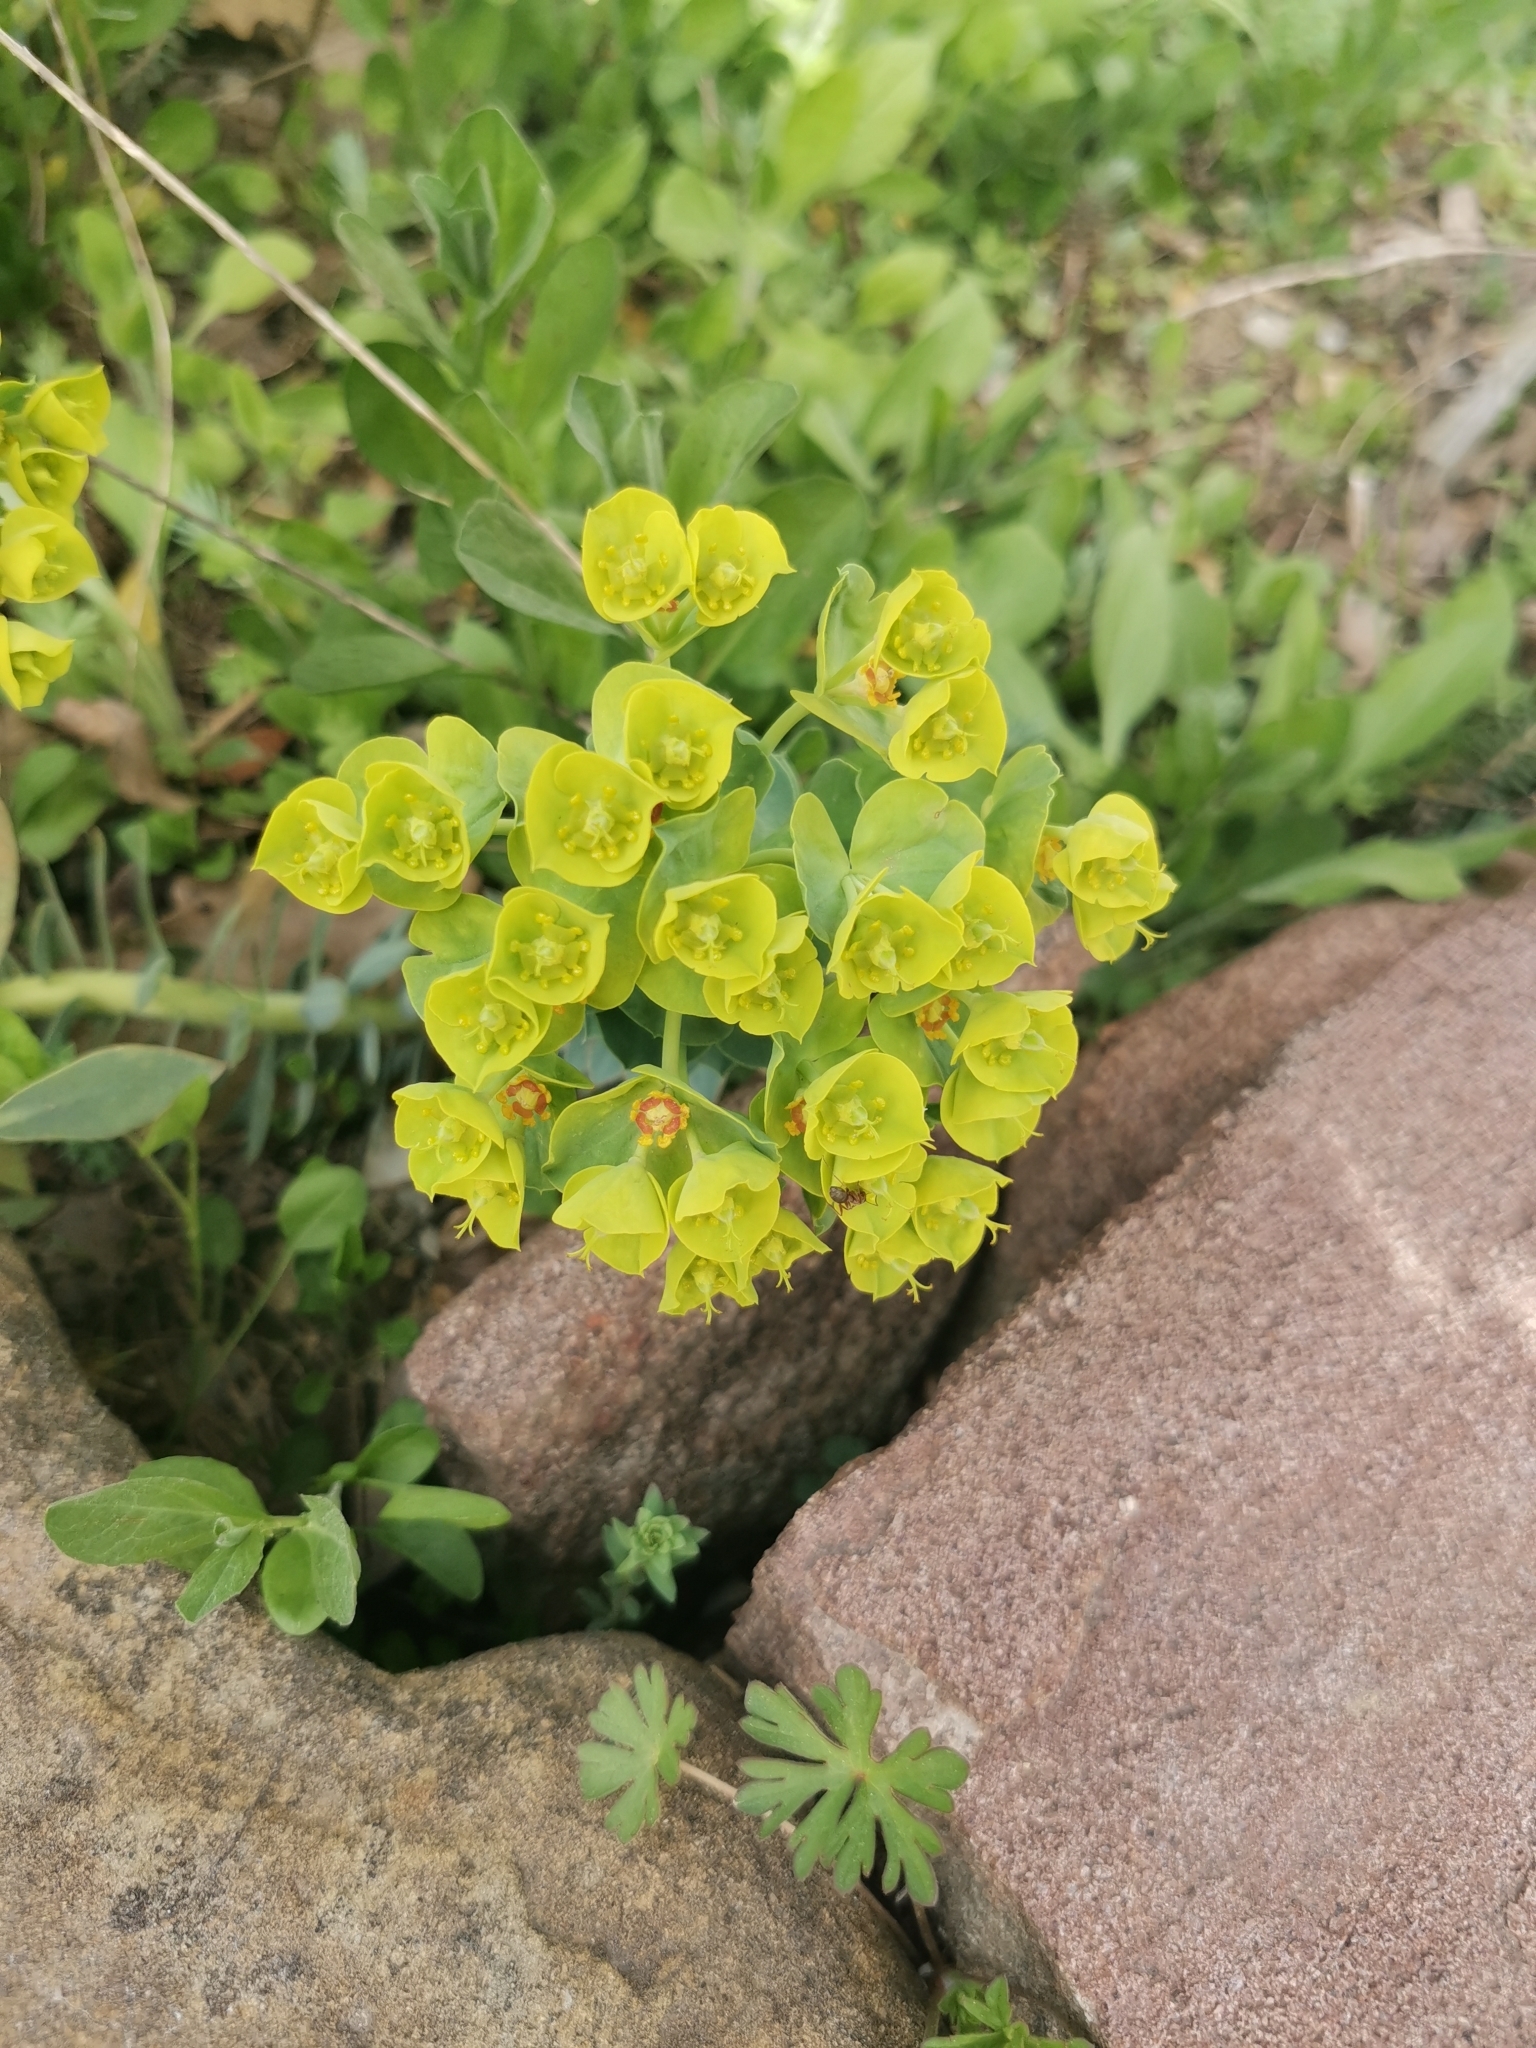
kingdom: Plantae
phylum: Tracheophyta
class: Magnoliopsida
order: Malpighiales
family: Euphorbiaceae
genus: Euphorbia
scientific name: Euphorbia rigida
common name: Upright myrtle spurge
